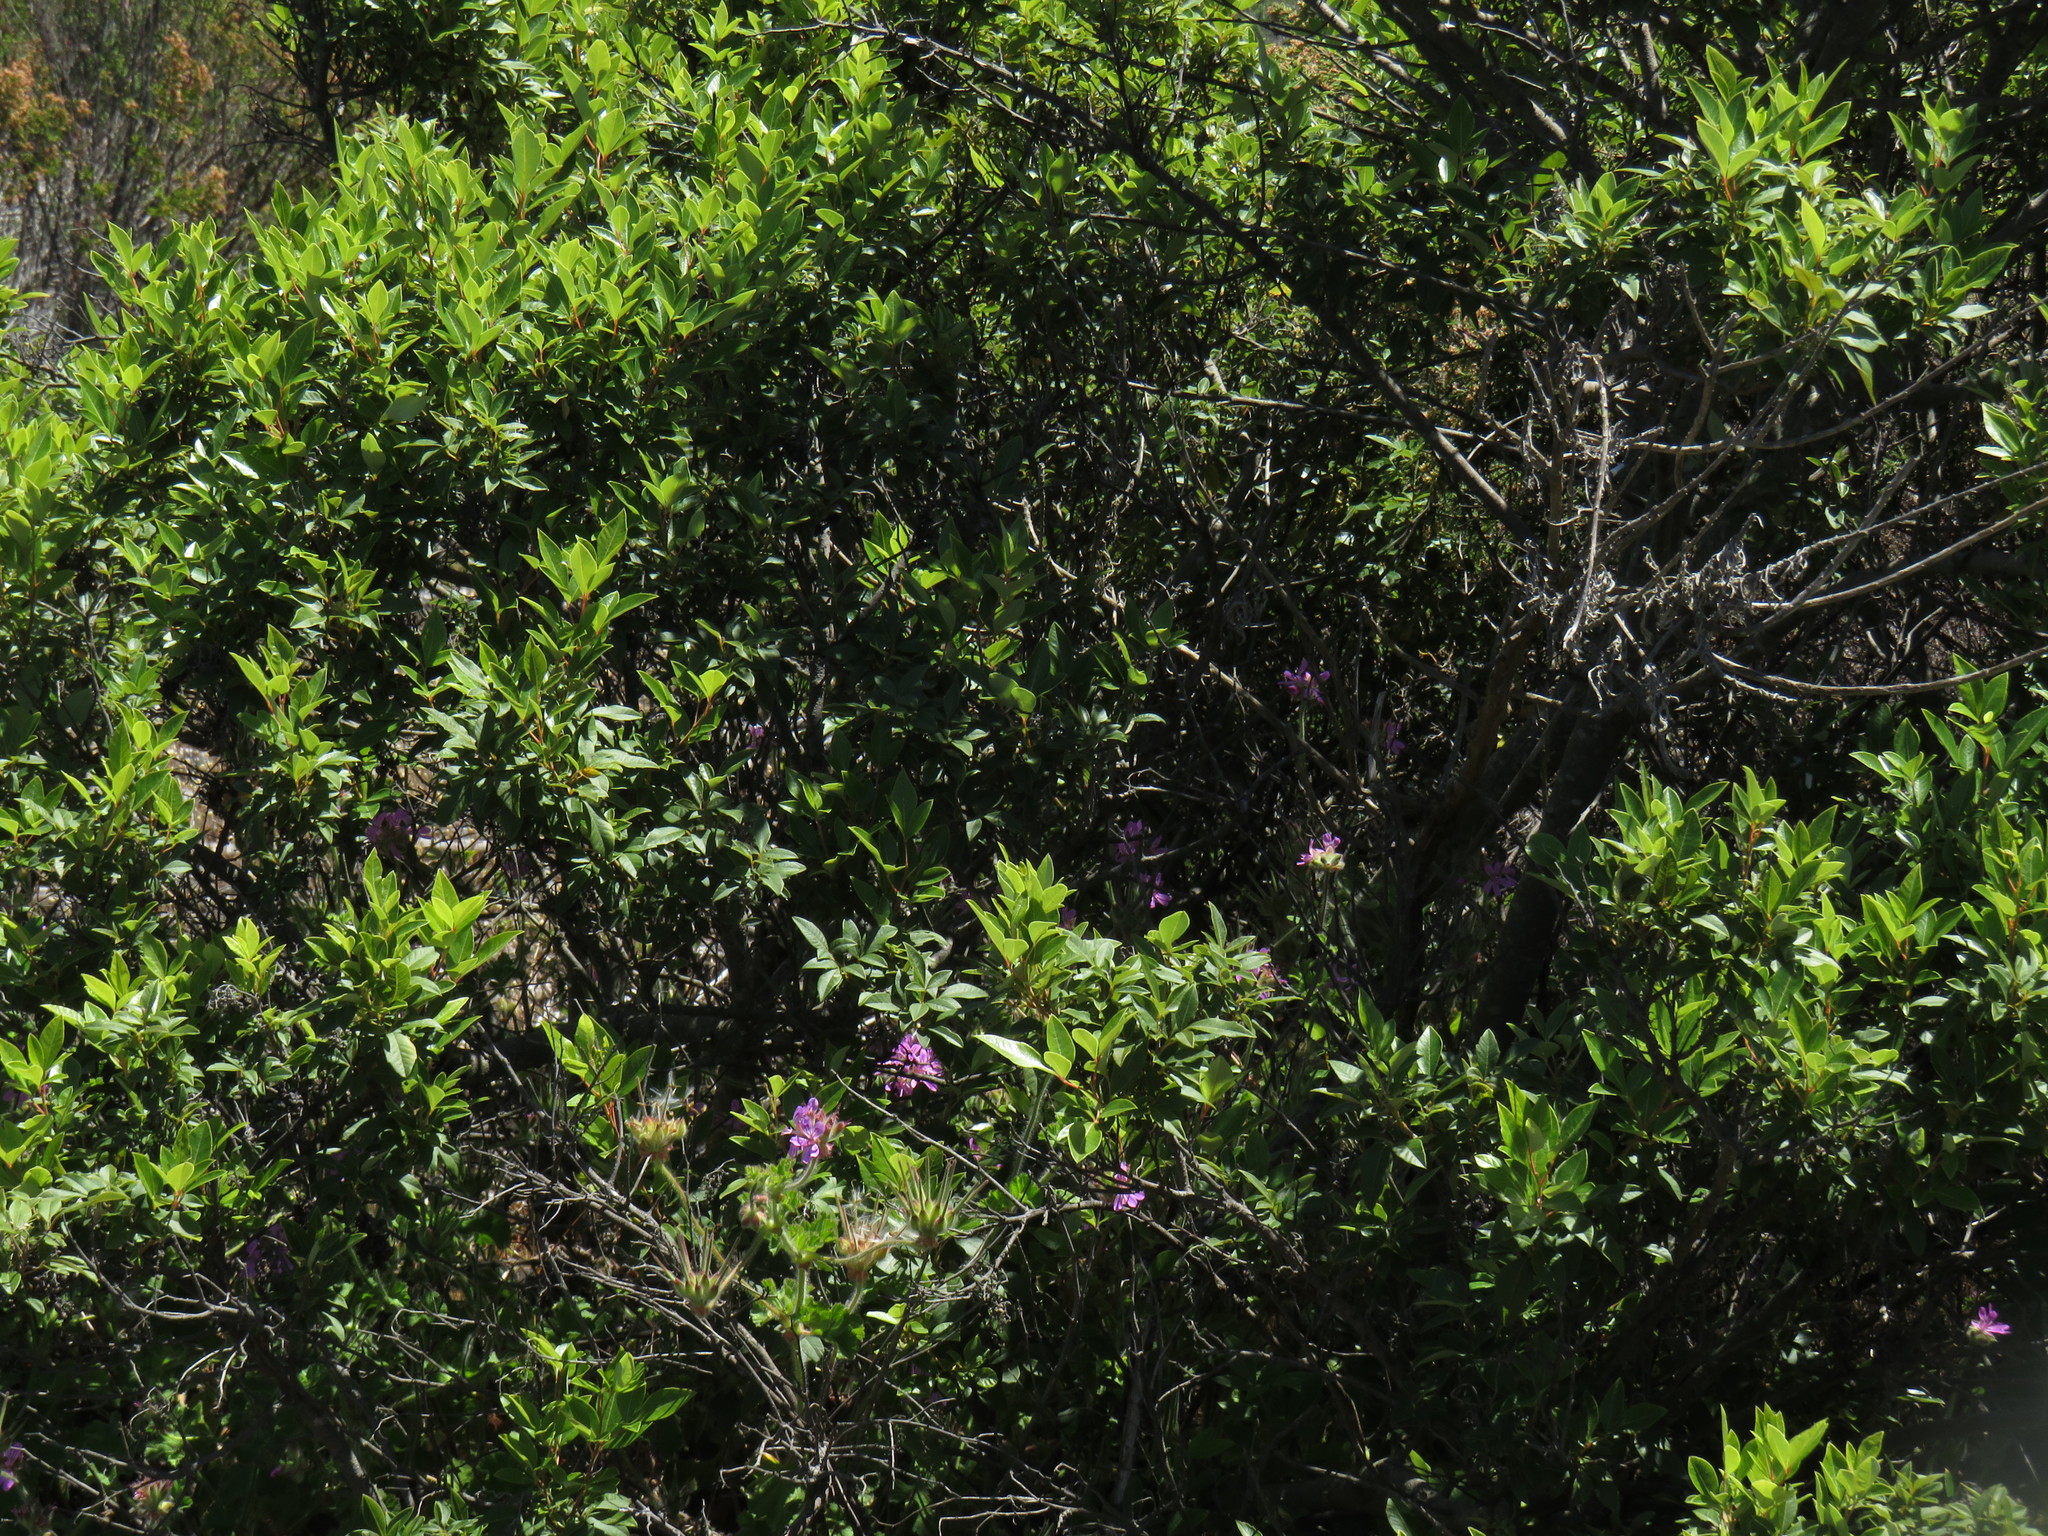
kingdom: Plantae
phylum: Tracheophyta
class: Magnoliopsida
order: Sapindales
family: Anacardiaceae
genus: Searsia
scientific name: Searsia tomentosa
